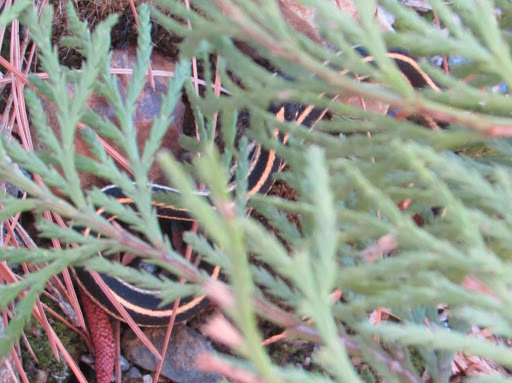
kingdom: Animalia
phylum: Chordata
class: Squamata
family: Colubridae
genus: Thamnophis
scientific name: Thamnophis elegans
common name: Western terrestrial garter snake
